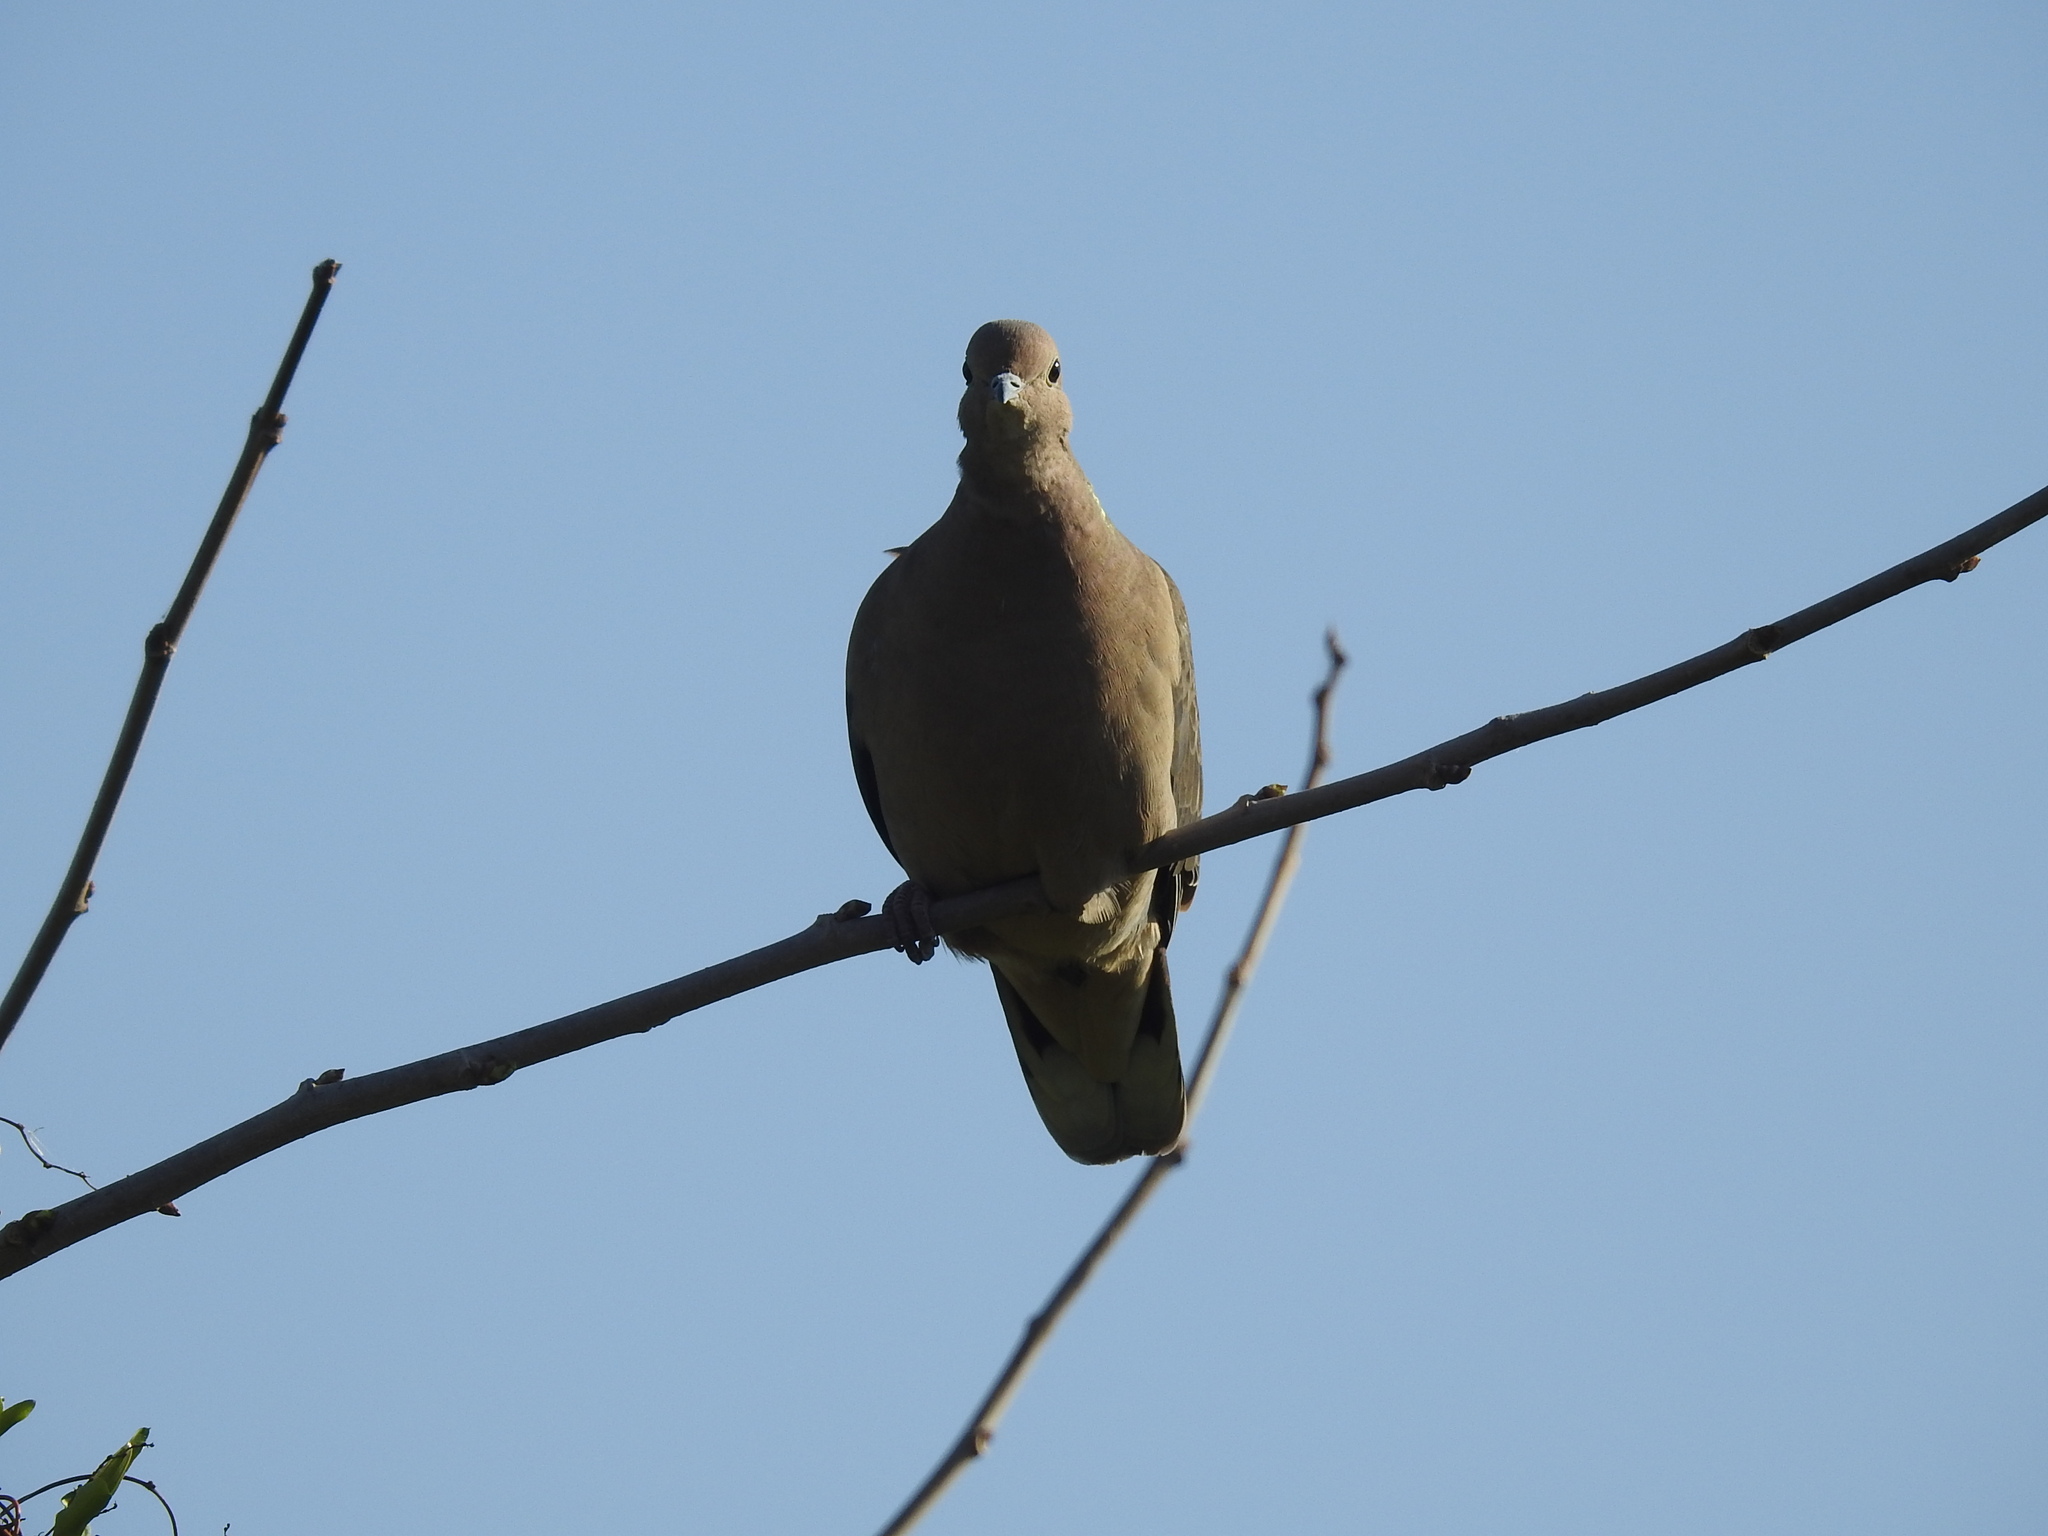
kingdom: Animalia
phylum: Chordata
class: Aves
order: Columbiformes
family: Columbidae
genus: Zenaida
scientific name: Zenaida auriculata
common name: Eared dove
